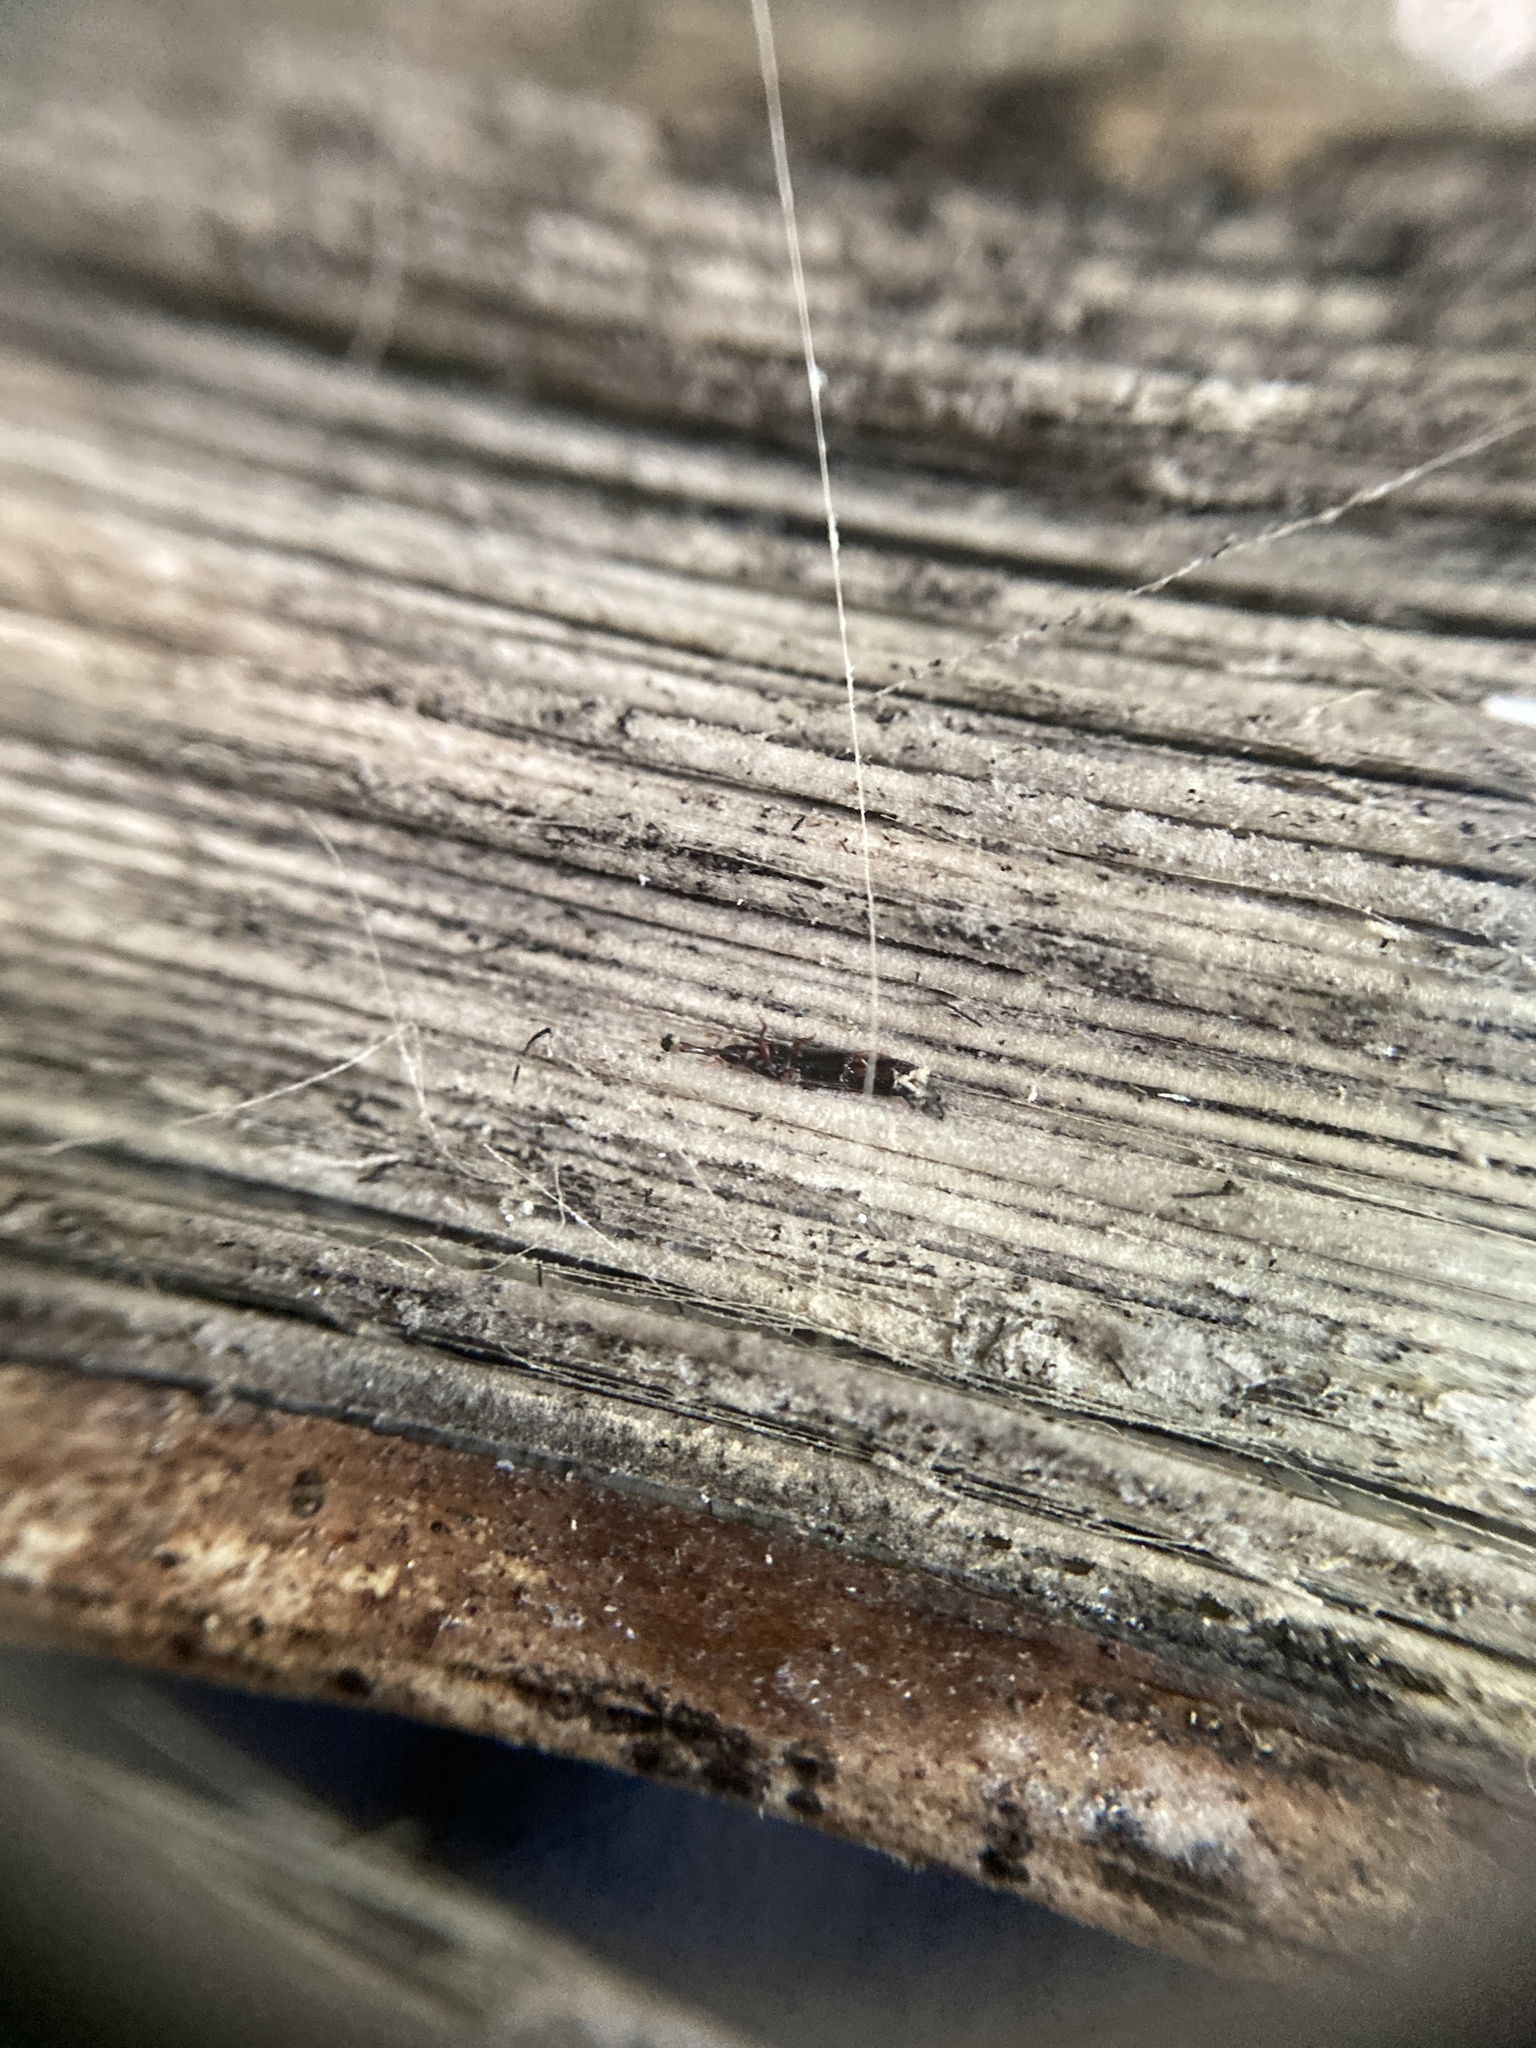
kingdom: Animalia
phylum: Arthropoda
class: Insecta
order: Coleoptera
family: Curculionidae
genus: Stenotrupis
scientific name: Stenotrupis wollastoniana
